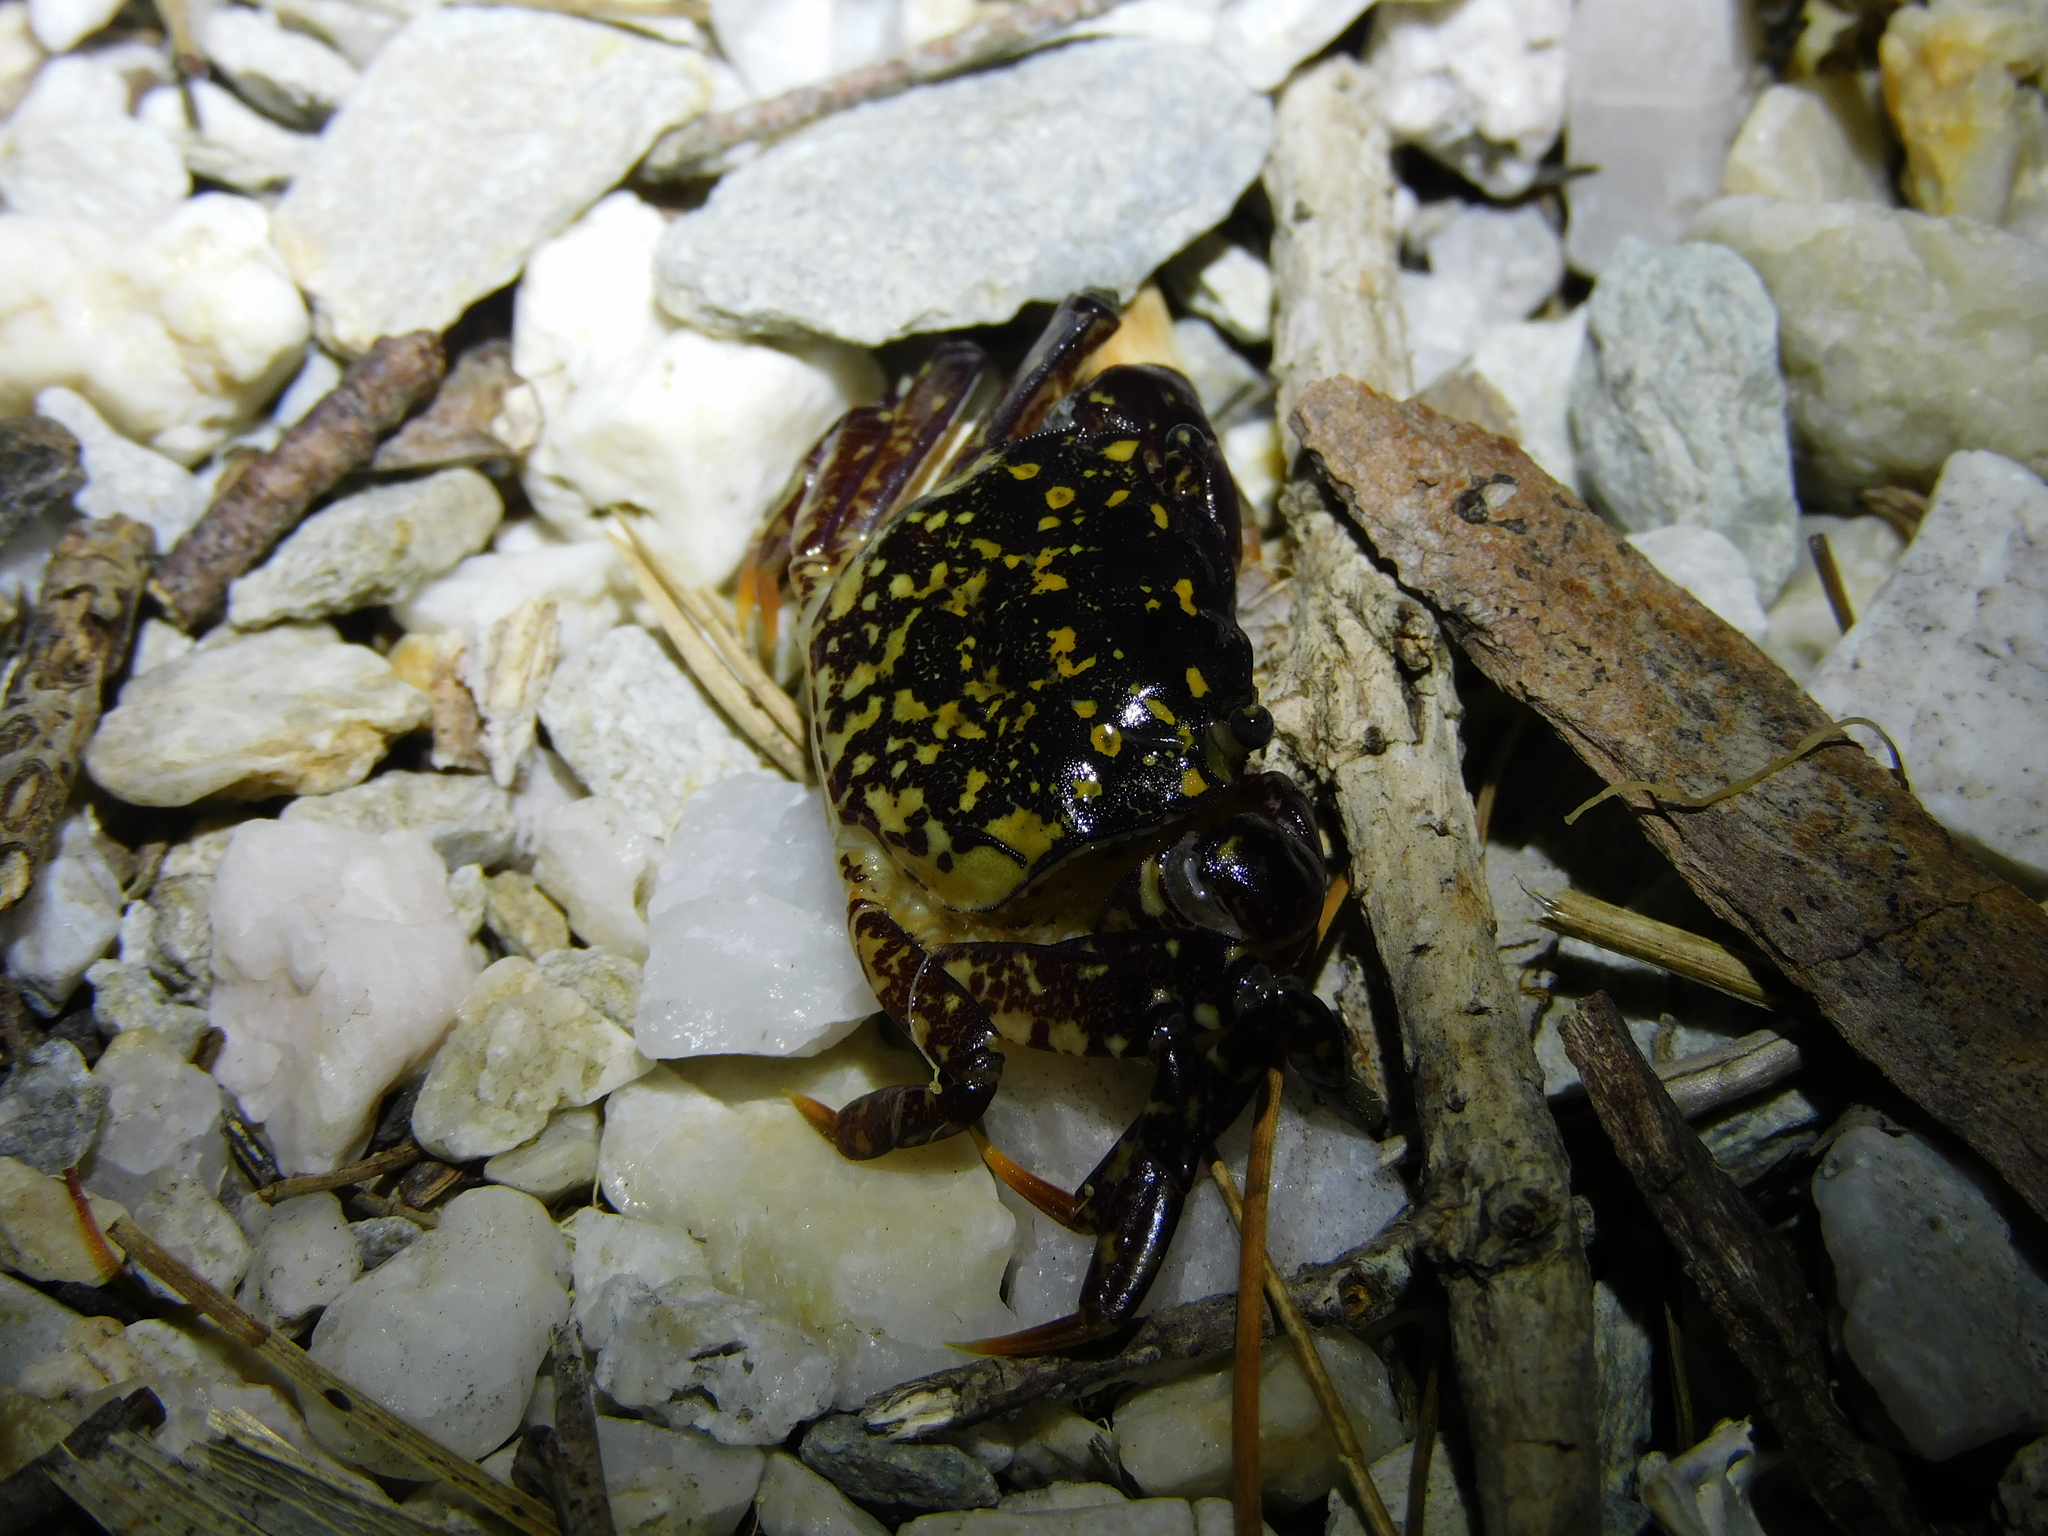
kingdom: Animalia
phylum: Arthropoda
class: Malacostraca
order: Decapoda
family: Varunidae
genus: Paragrapsus
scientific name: Paragrapsus laevis
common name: Smooth shore crab
